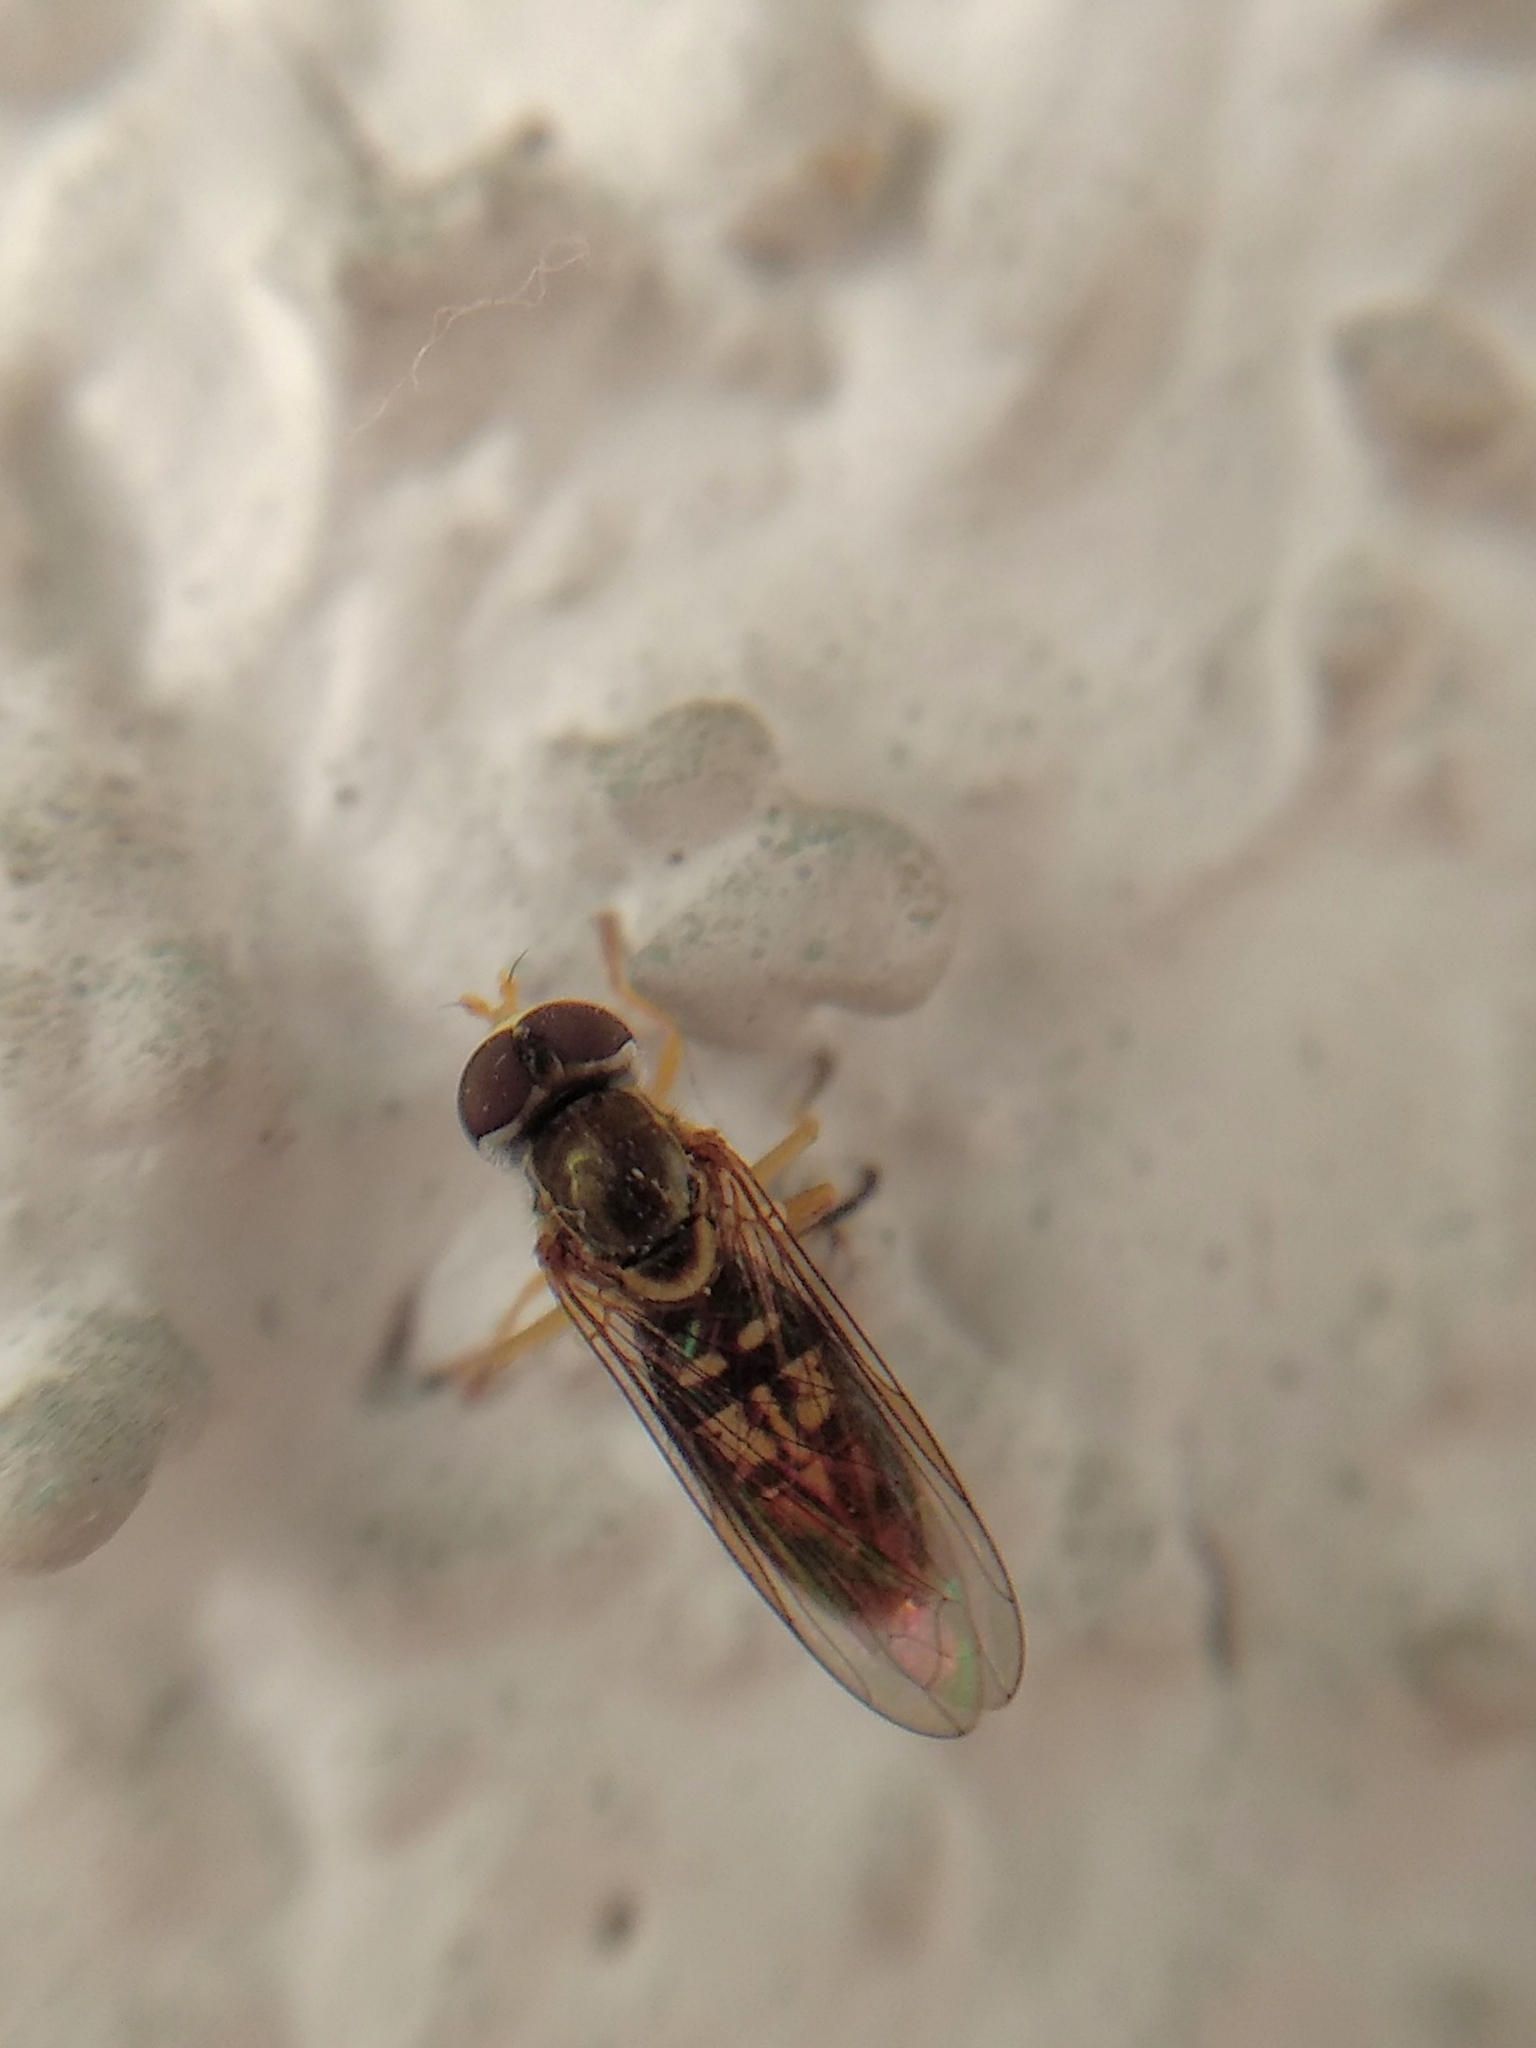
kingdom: Animalia
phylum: Arthropoda
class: Insecta
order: Diptera
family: Syrphidae
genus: Toxomerus
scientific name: Toxomerus marginatus
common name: Syrphid fly
